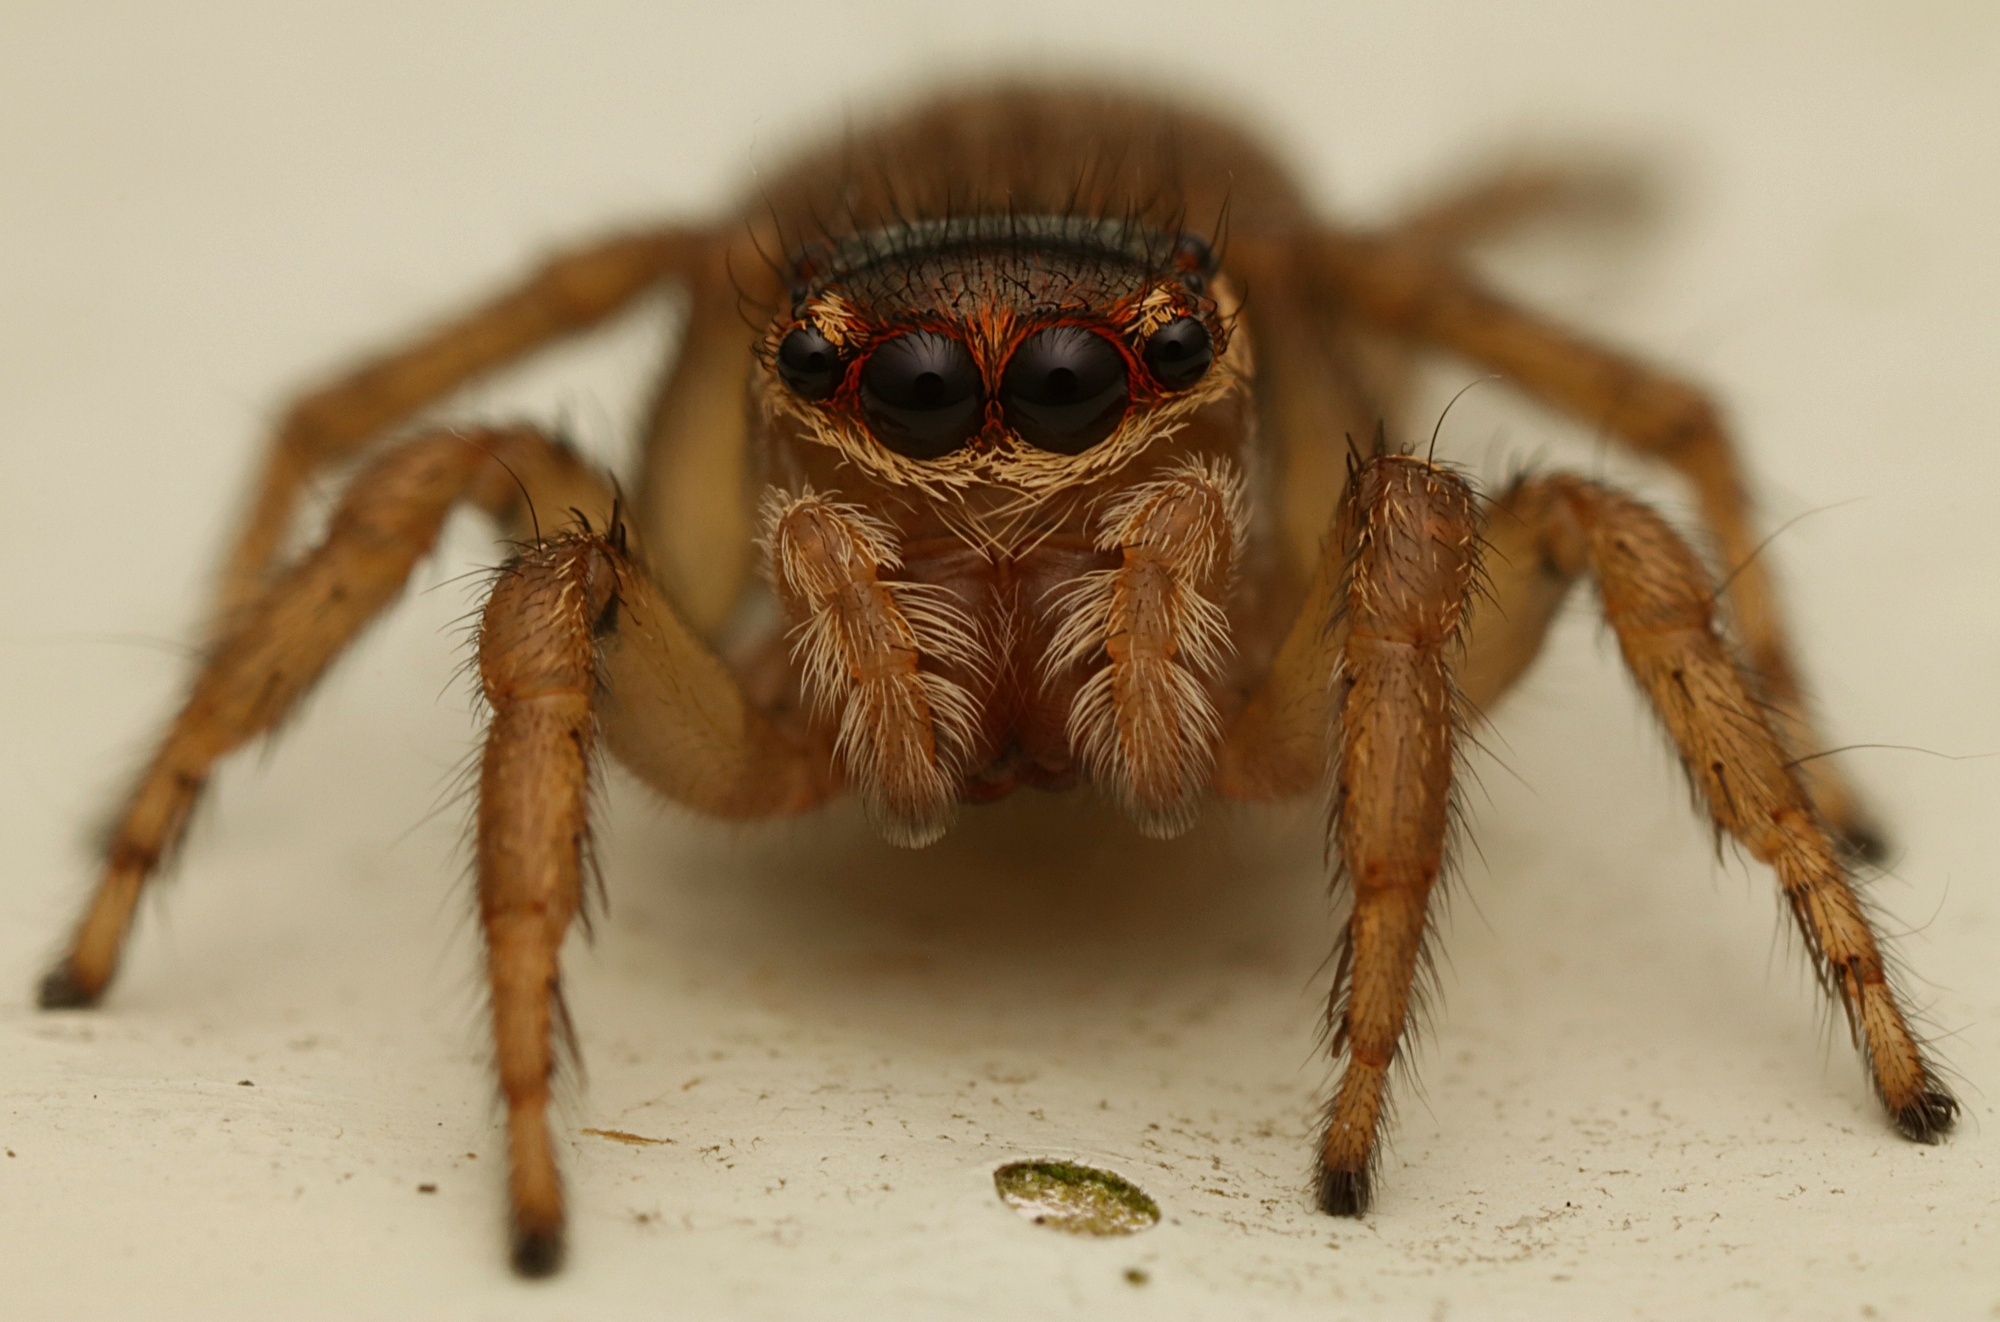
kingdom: Animalia
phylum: Arthropoda
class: Arachnida
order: Araneae
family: Salticidae
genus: Maratus
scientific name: Maratus griseus
